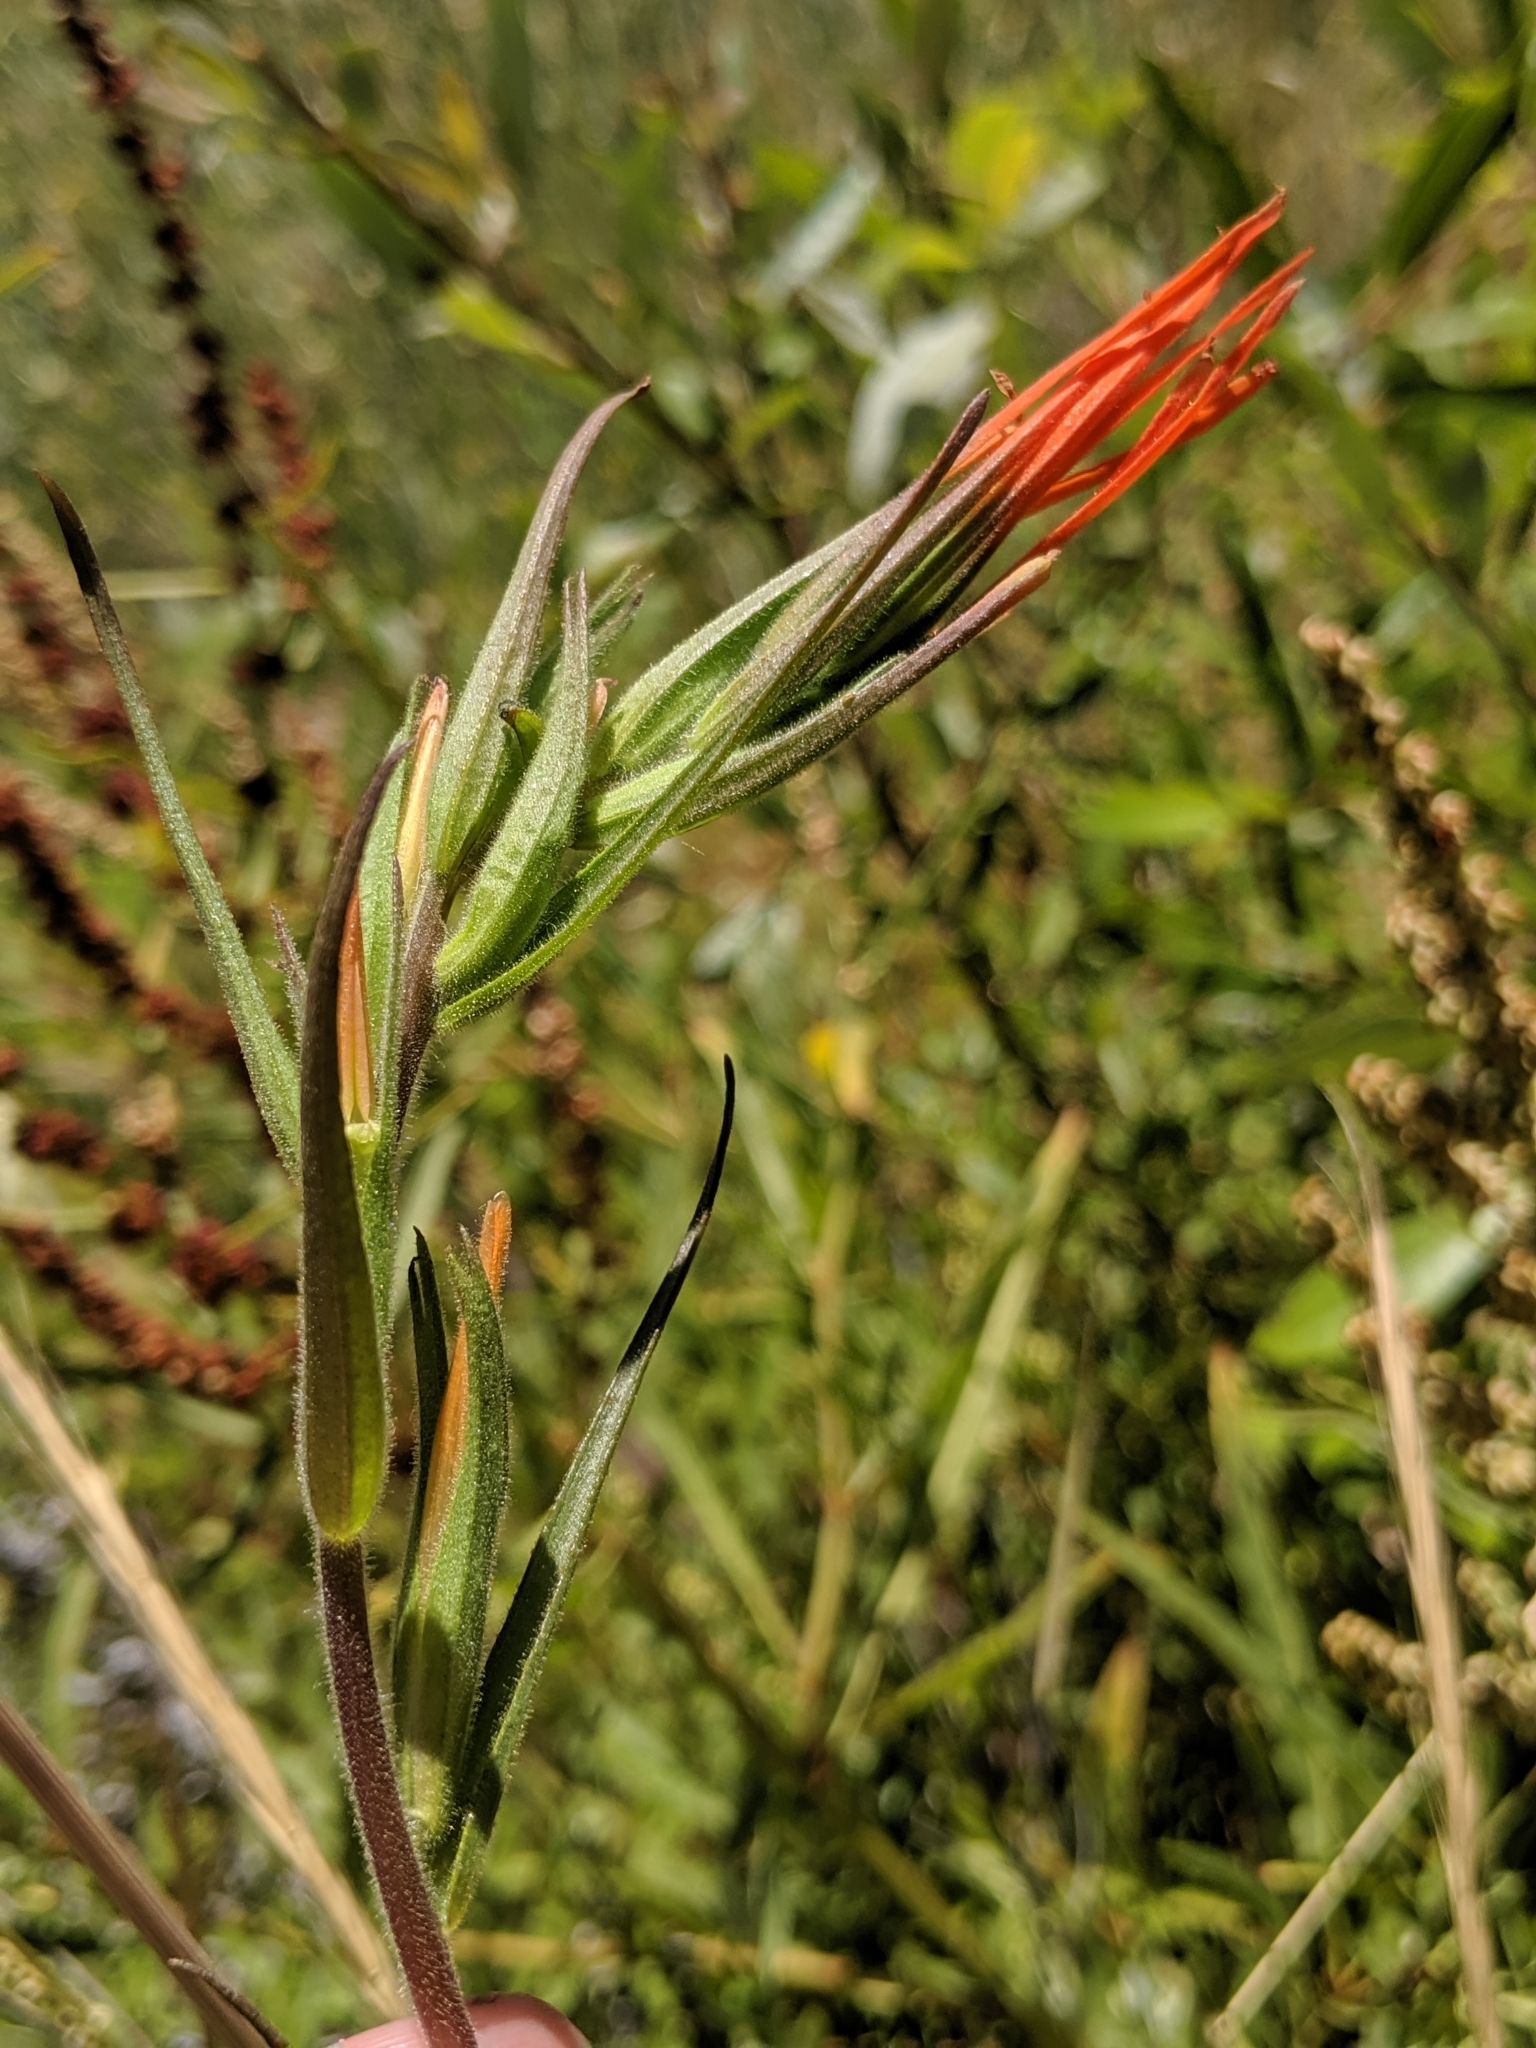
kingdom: Plantae
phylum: Tracheophyta
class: Magnoliopsida
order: Lamiales
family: Orobanchaceae
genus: Castilleja
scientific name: Castilleja minor
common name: Seep paintbrush
